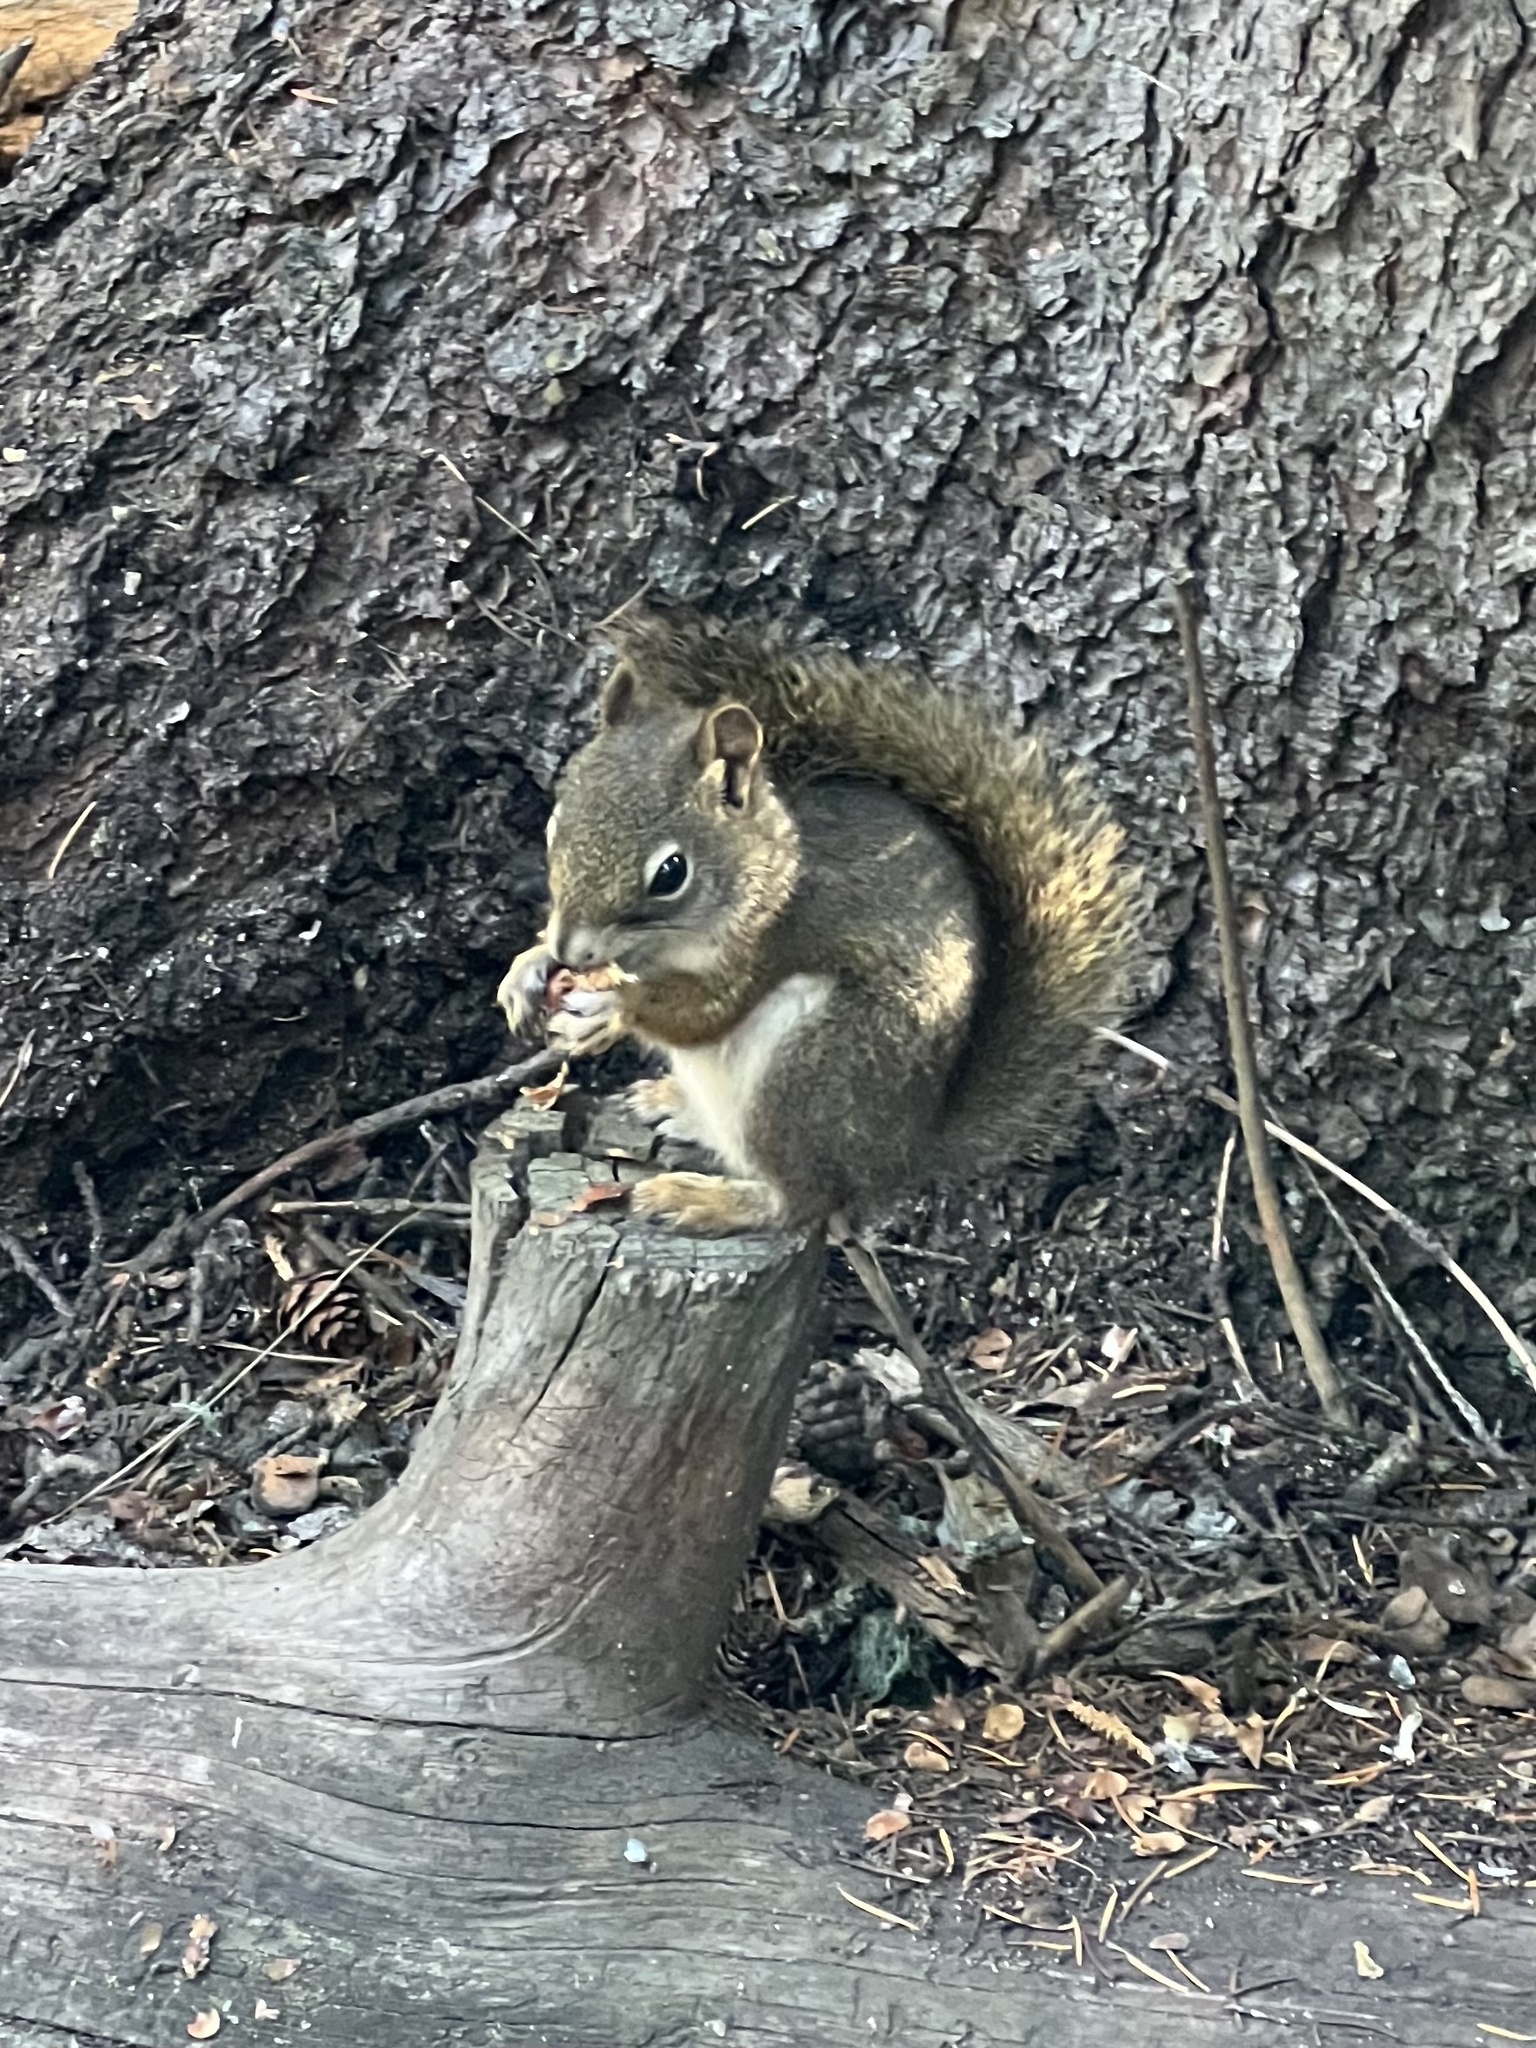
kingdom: Animalia
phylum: Chordata
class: Mammalia
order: Rodentia
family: Sciuridae
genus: Tamiasciurus
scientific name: Tamiasciurus hudsonicus
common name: Red squirrel
